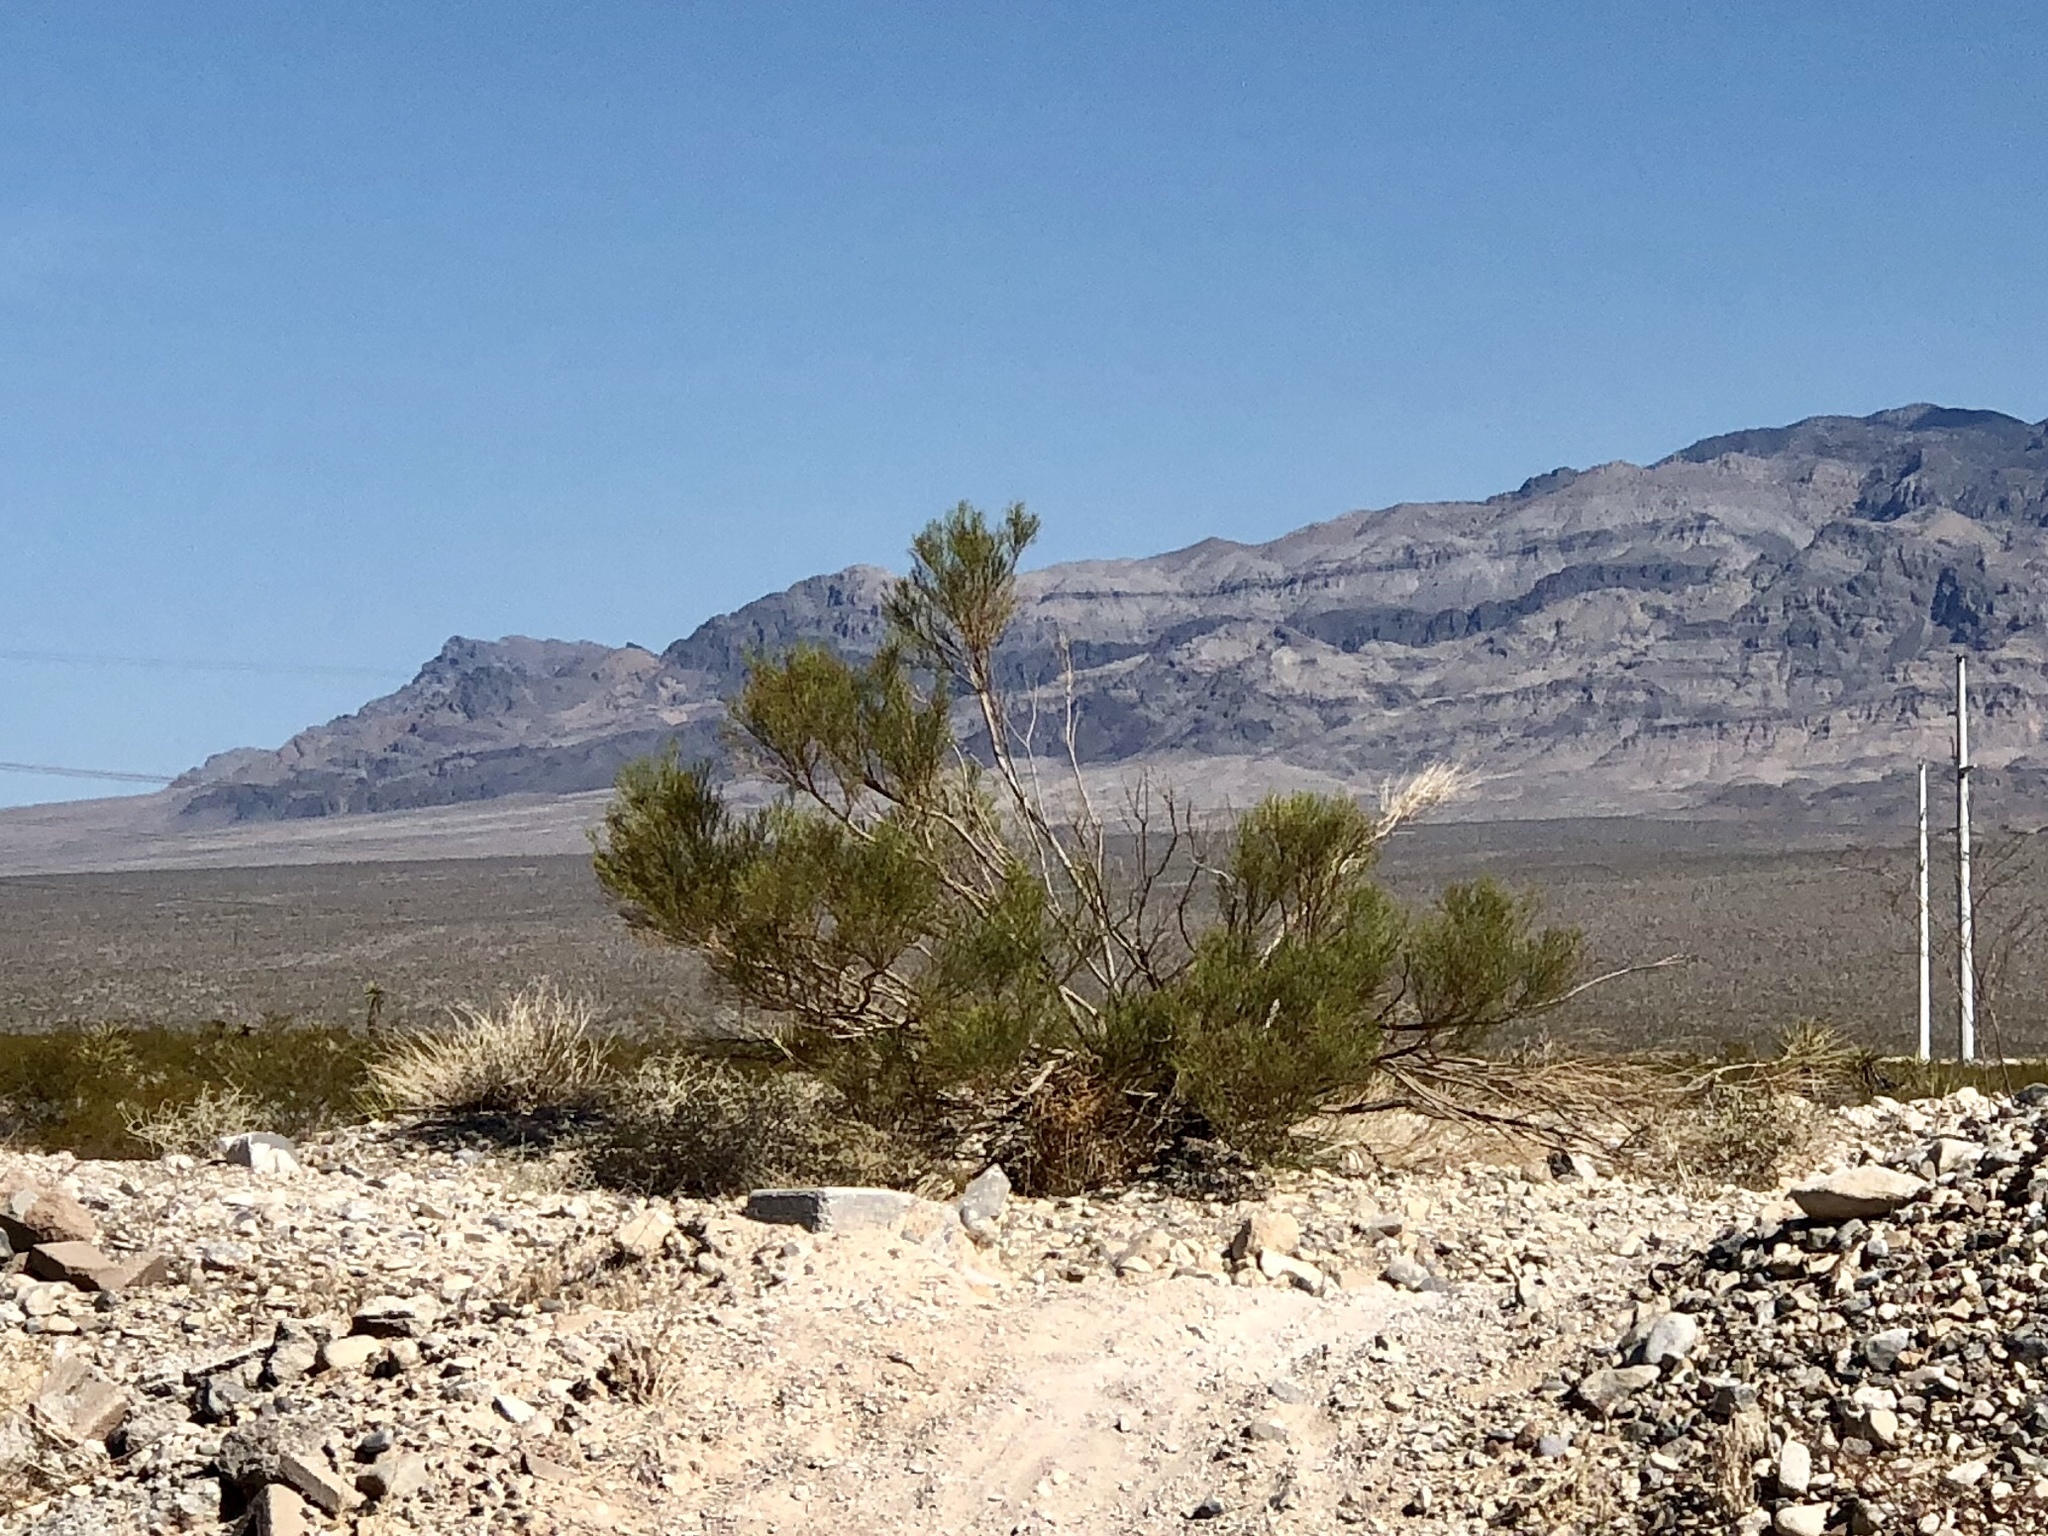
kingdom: Plantae
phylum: Tracheophyta
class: Magnoliopsida
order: Asterales
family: Asteraceae
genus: Baccharis
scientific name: Baccharis sarothroides
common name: Desert-broom
